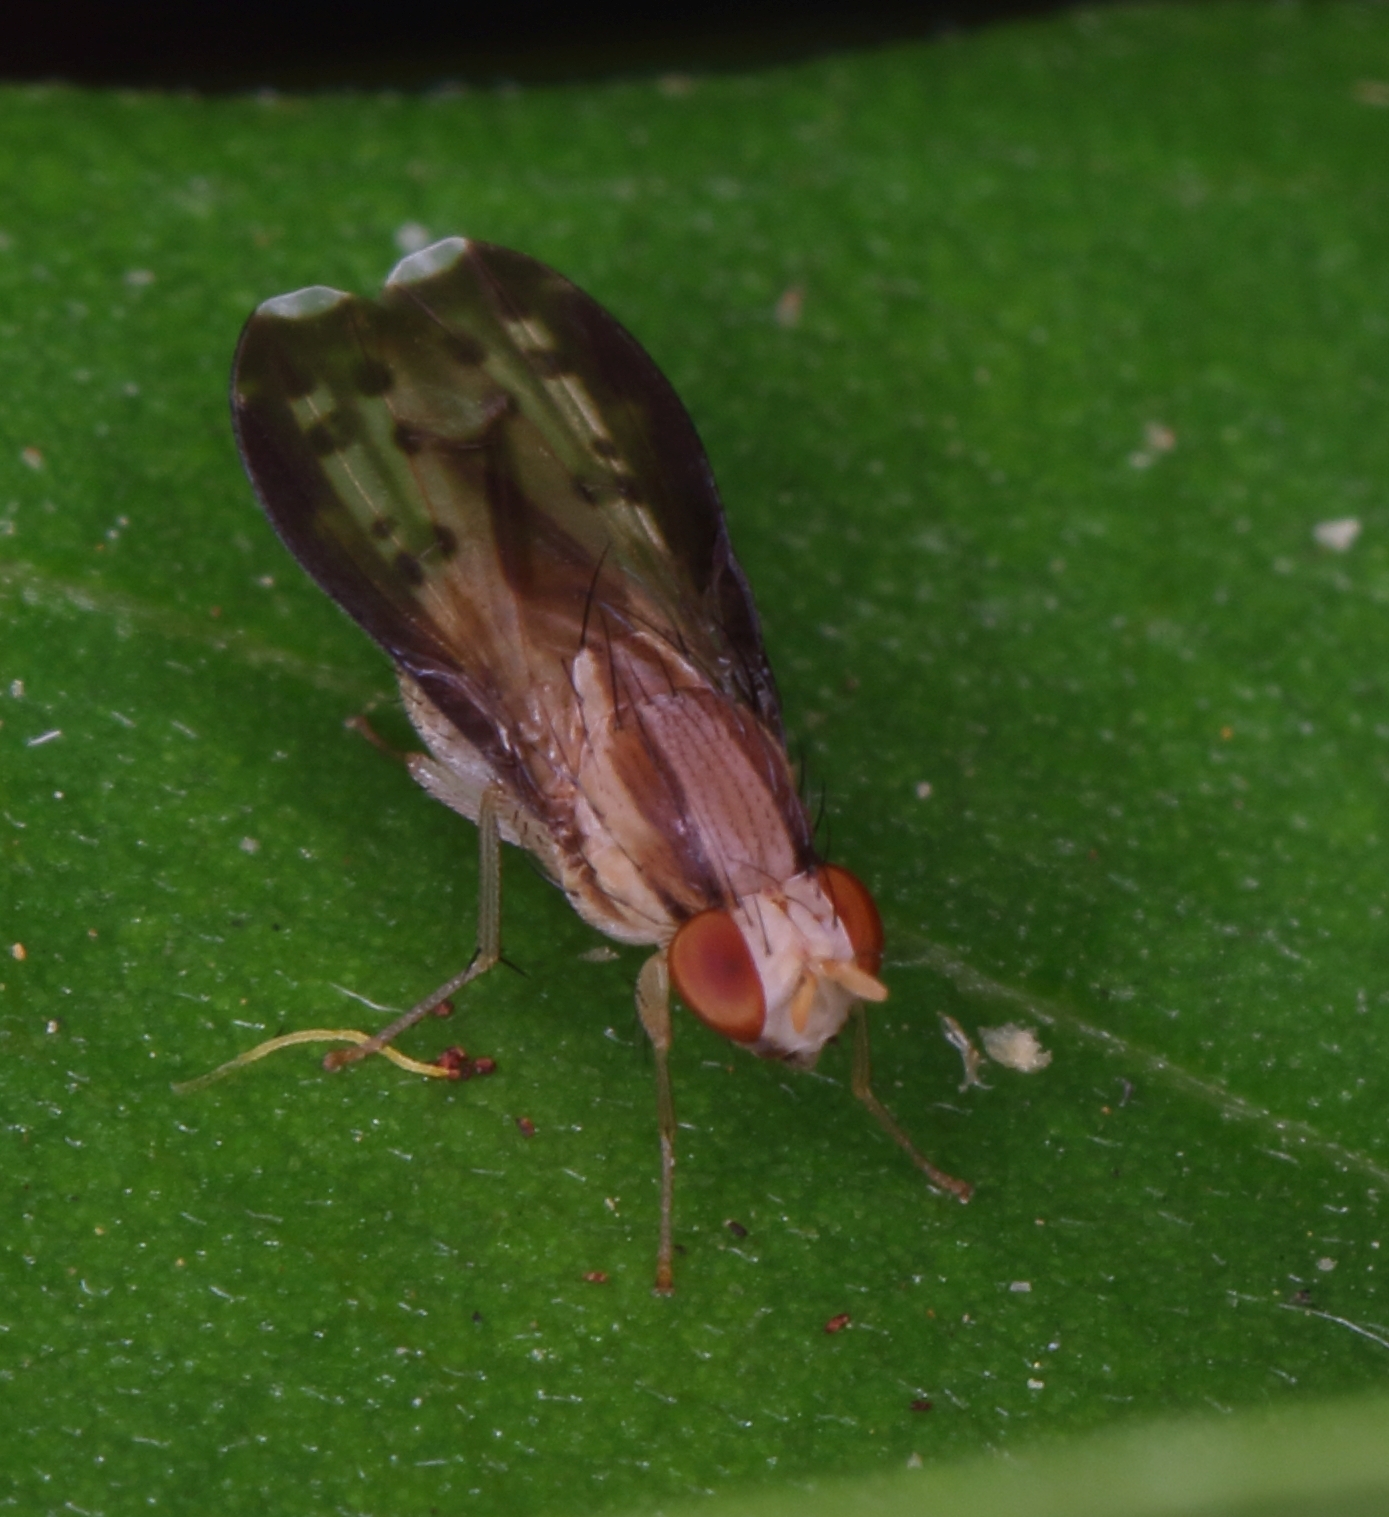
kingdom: Animalia
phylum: Arthropoda
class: Insecta
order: Diptera
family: Lauxaniidae
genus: Homoneura
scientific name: Homoneura terminalis
